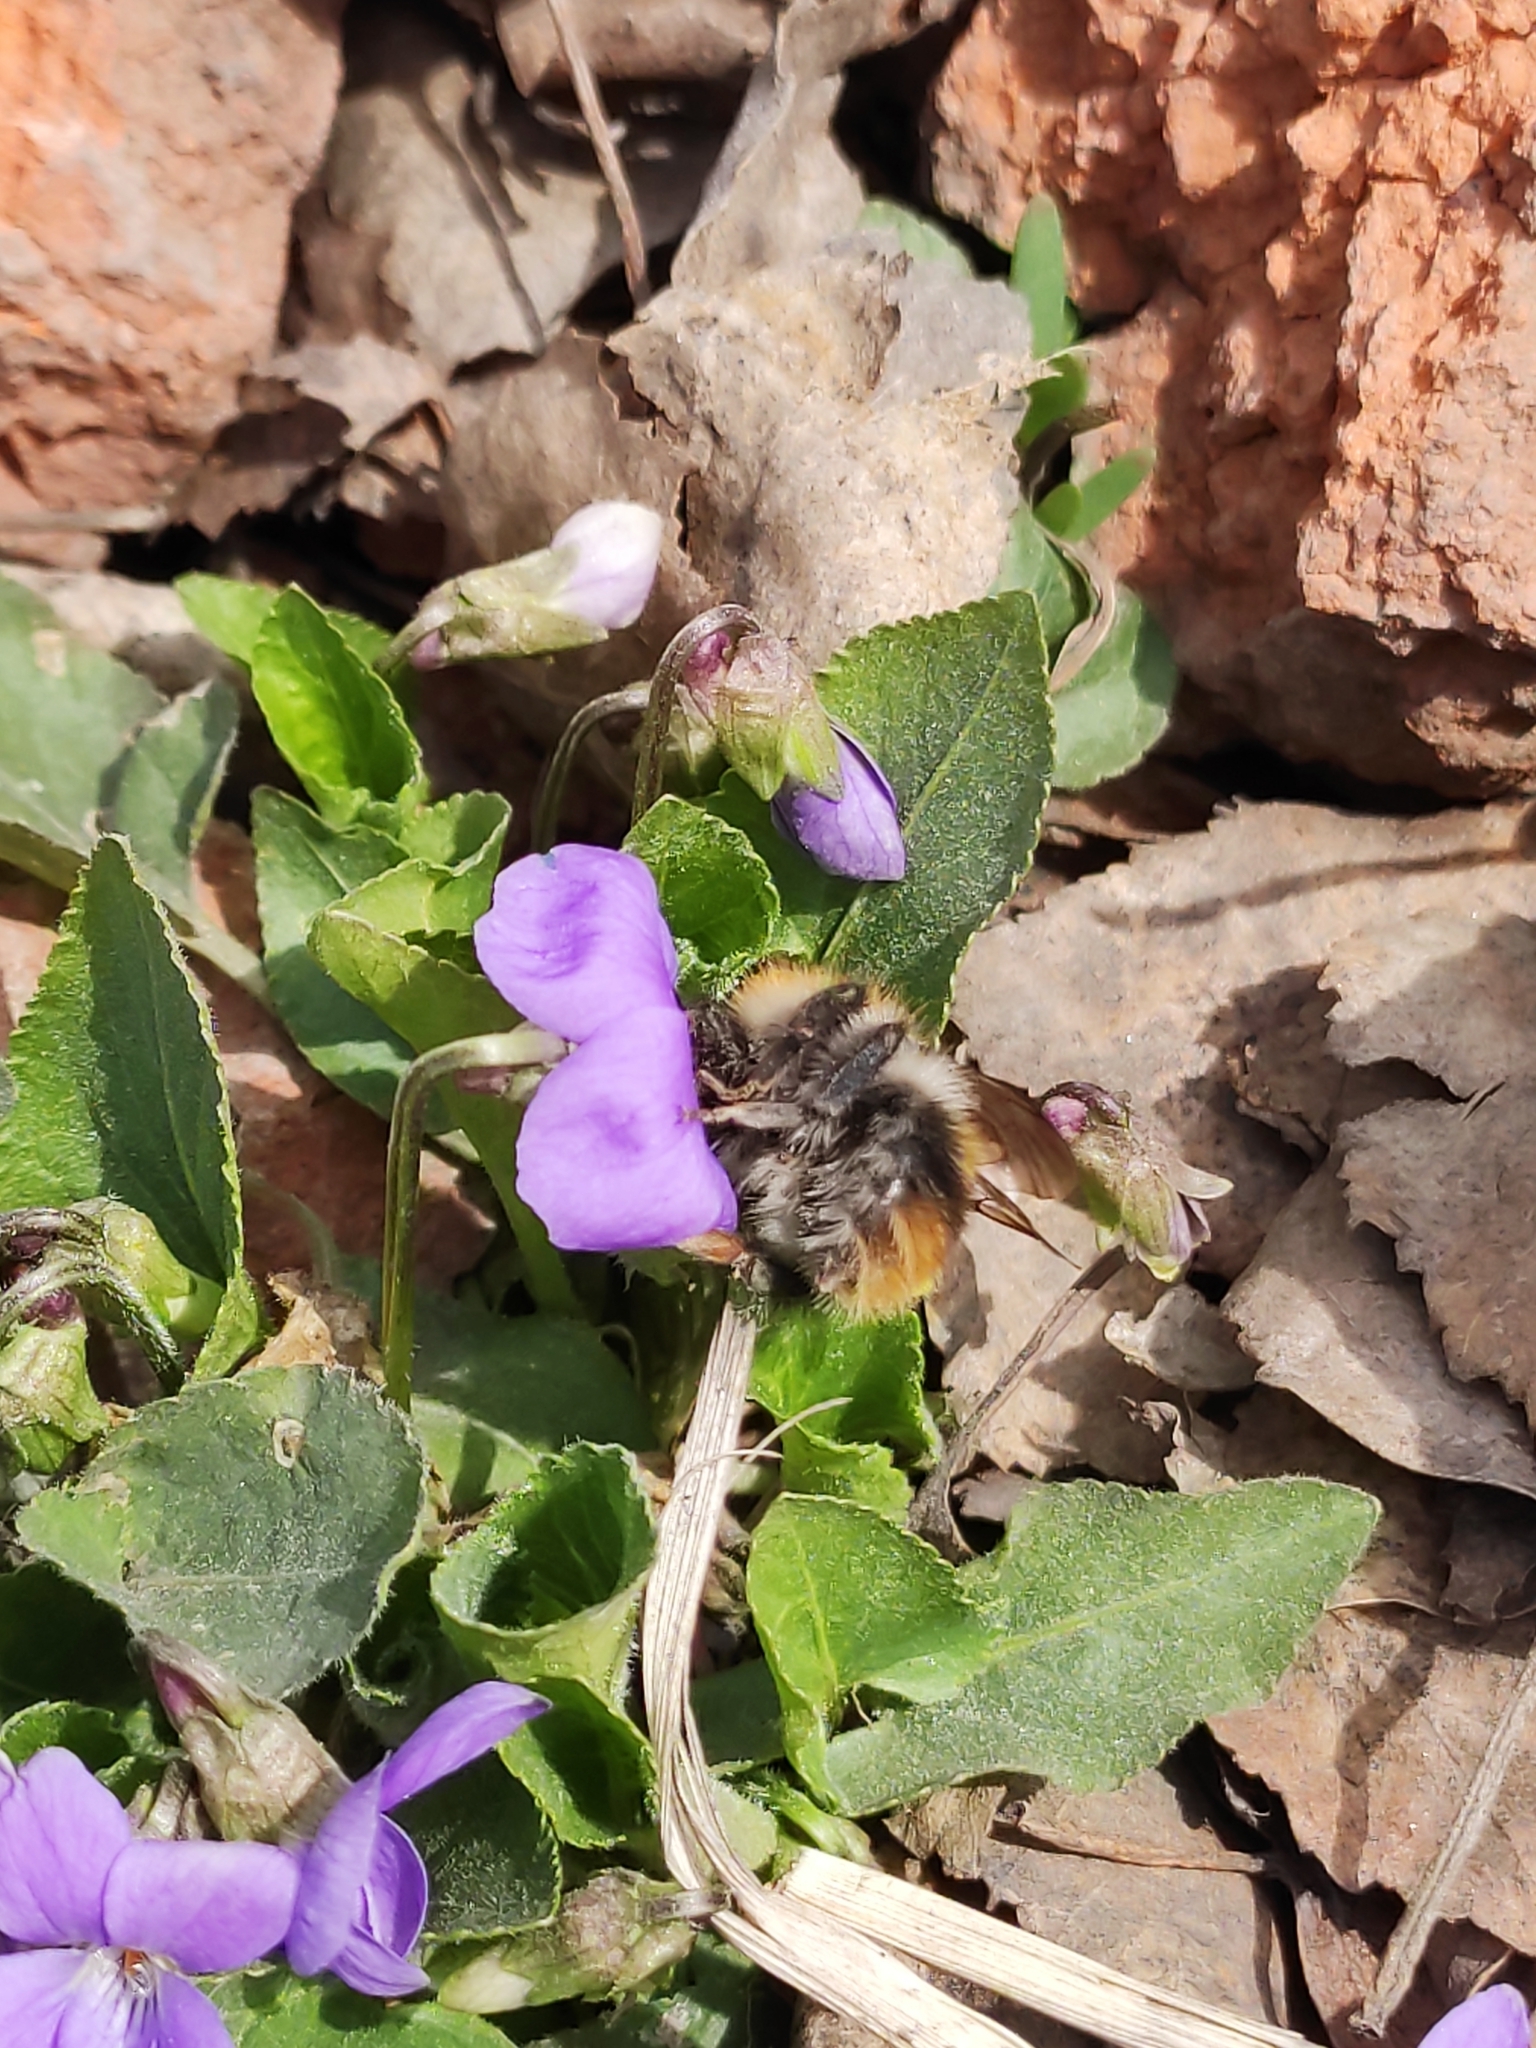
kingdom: Animalia
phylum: Arthropoda
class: Insecta
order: Hymenoptera
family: Apidae
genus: Bombus
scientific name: Bombus pascuorum
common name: Common carder bee
